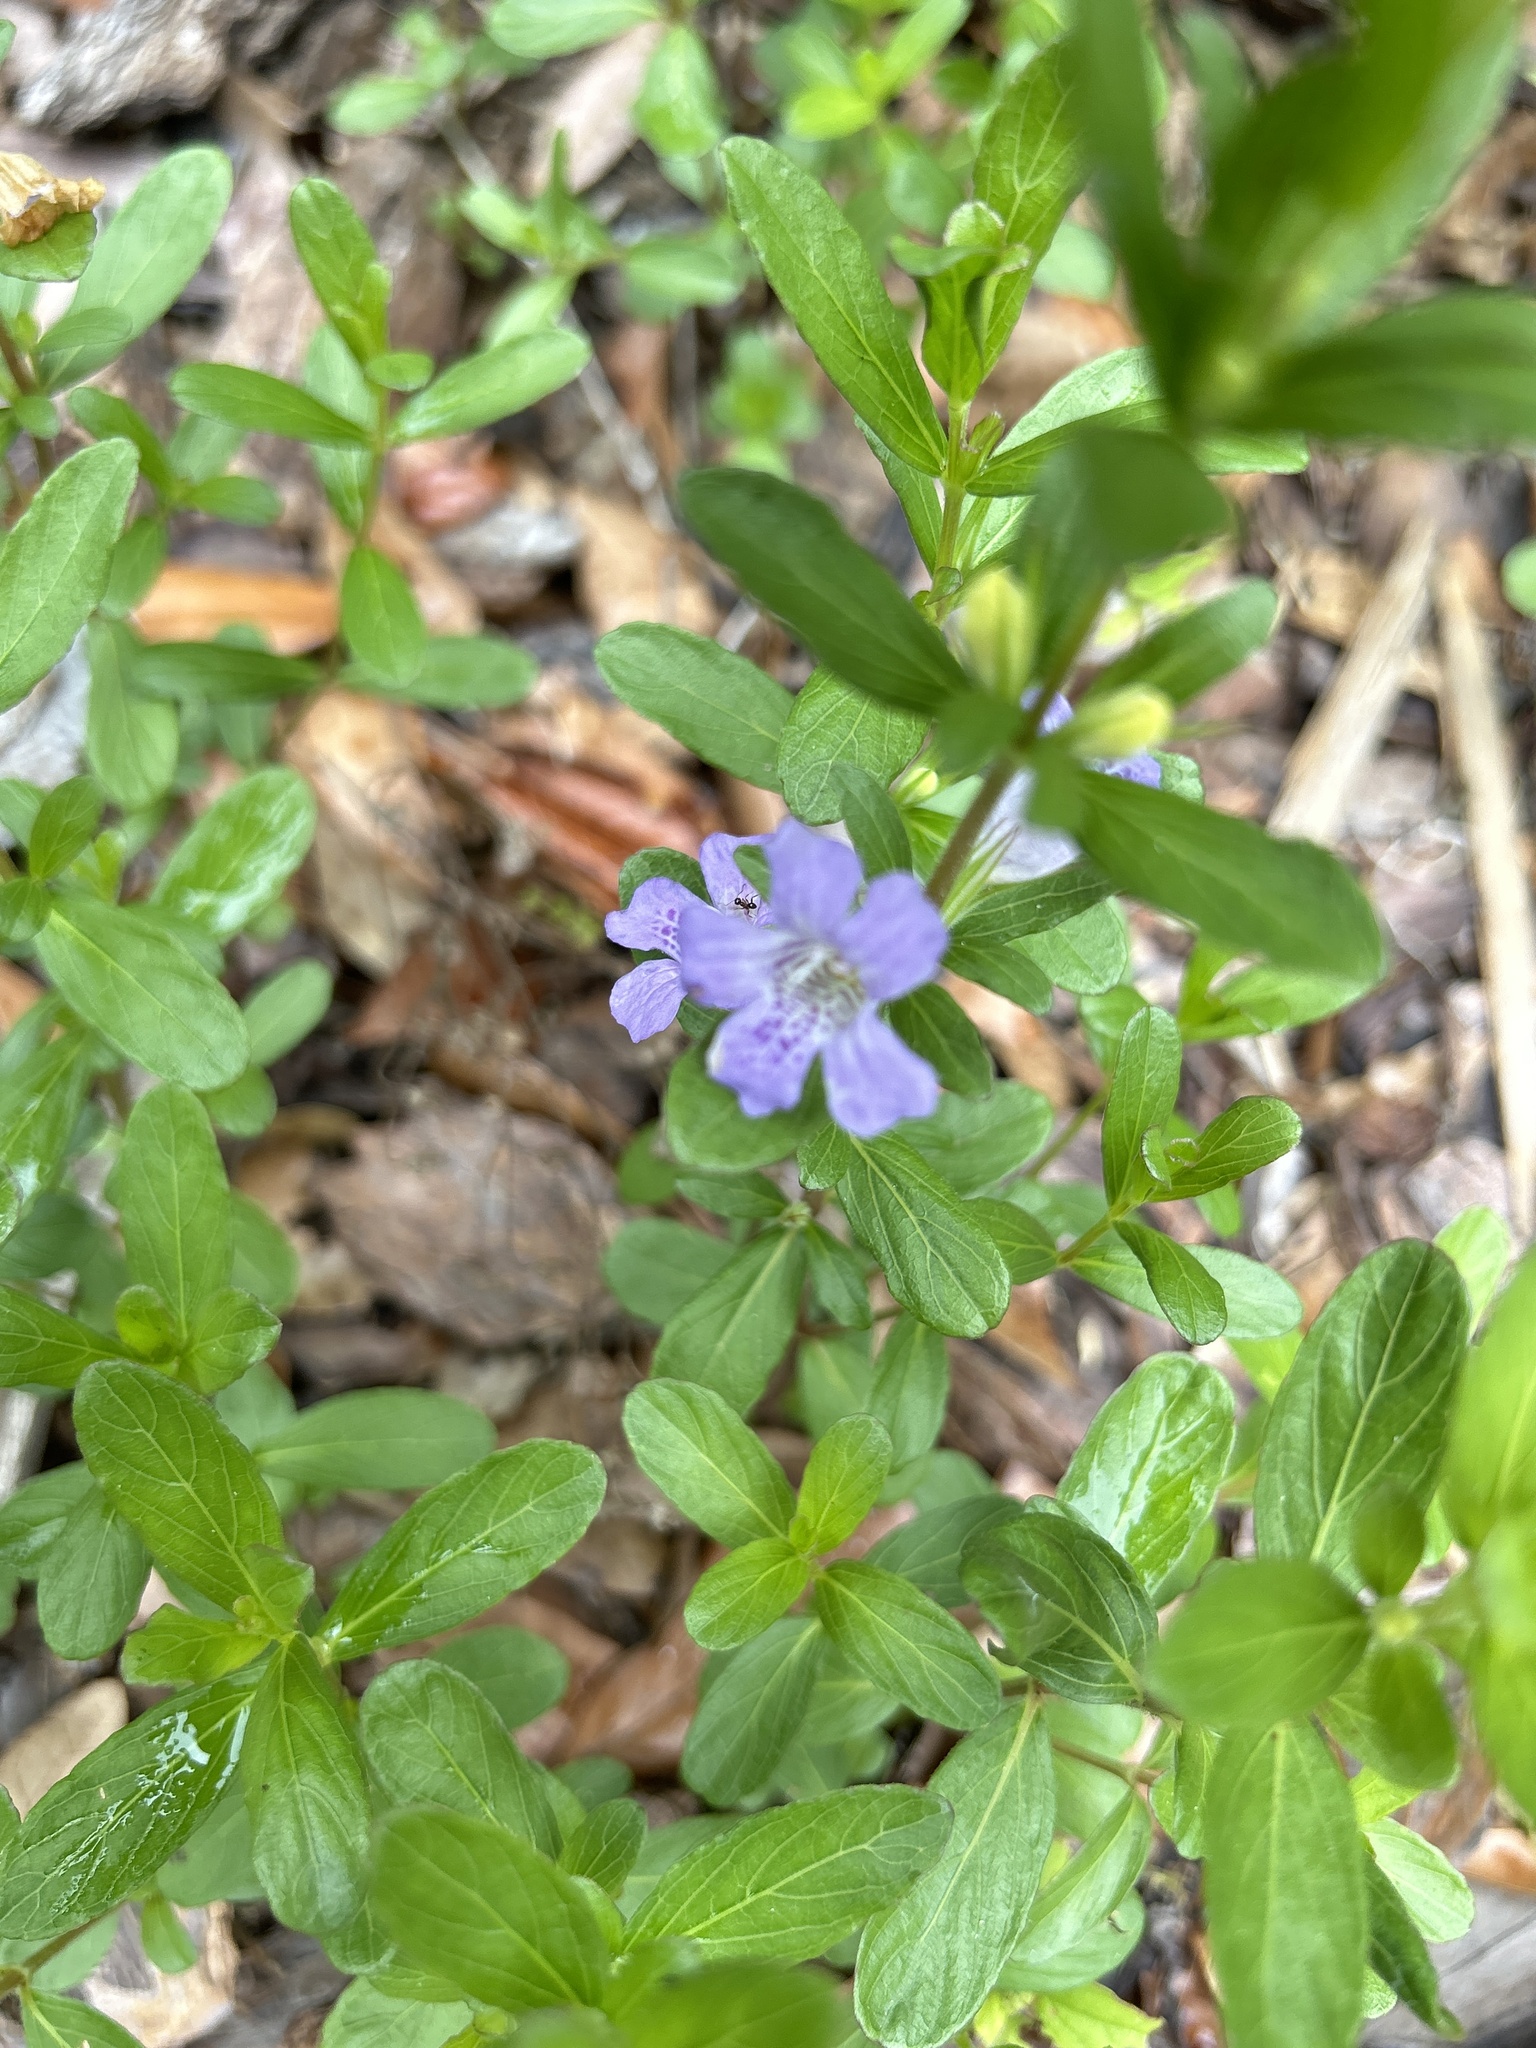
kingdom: Plantae
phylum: Tracheophyta
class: Magnoliopsida
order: Lamiales
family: Acanthaceae
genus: Dyschoriste
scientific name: Dyschoriste oblongifolia
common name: Blue twinflower
